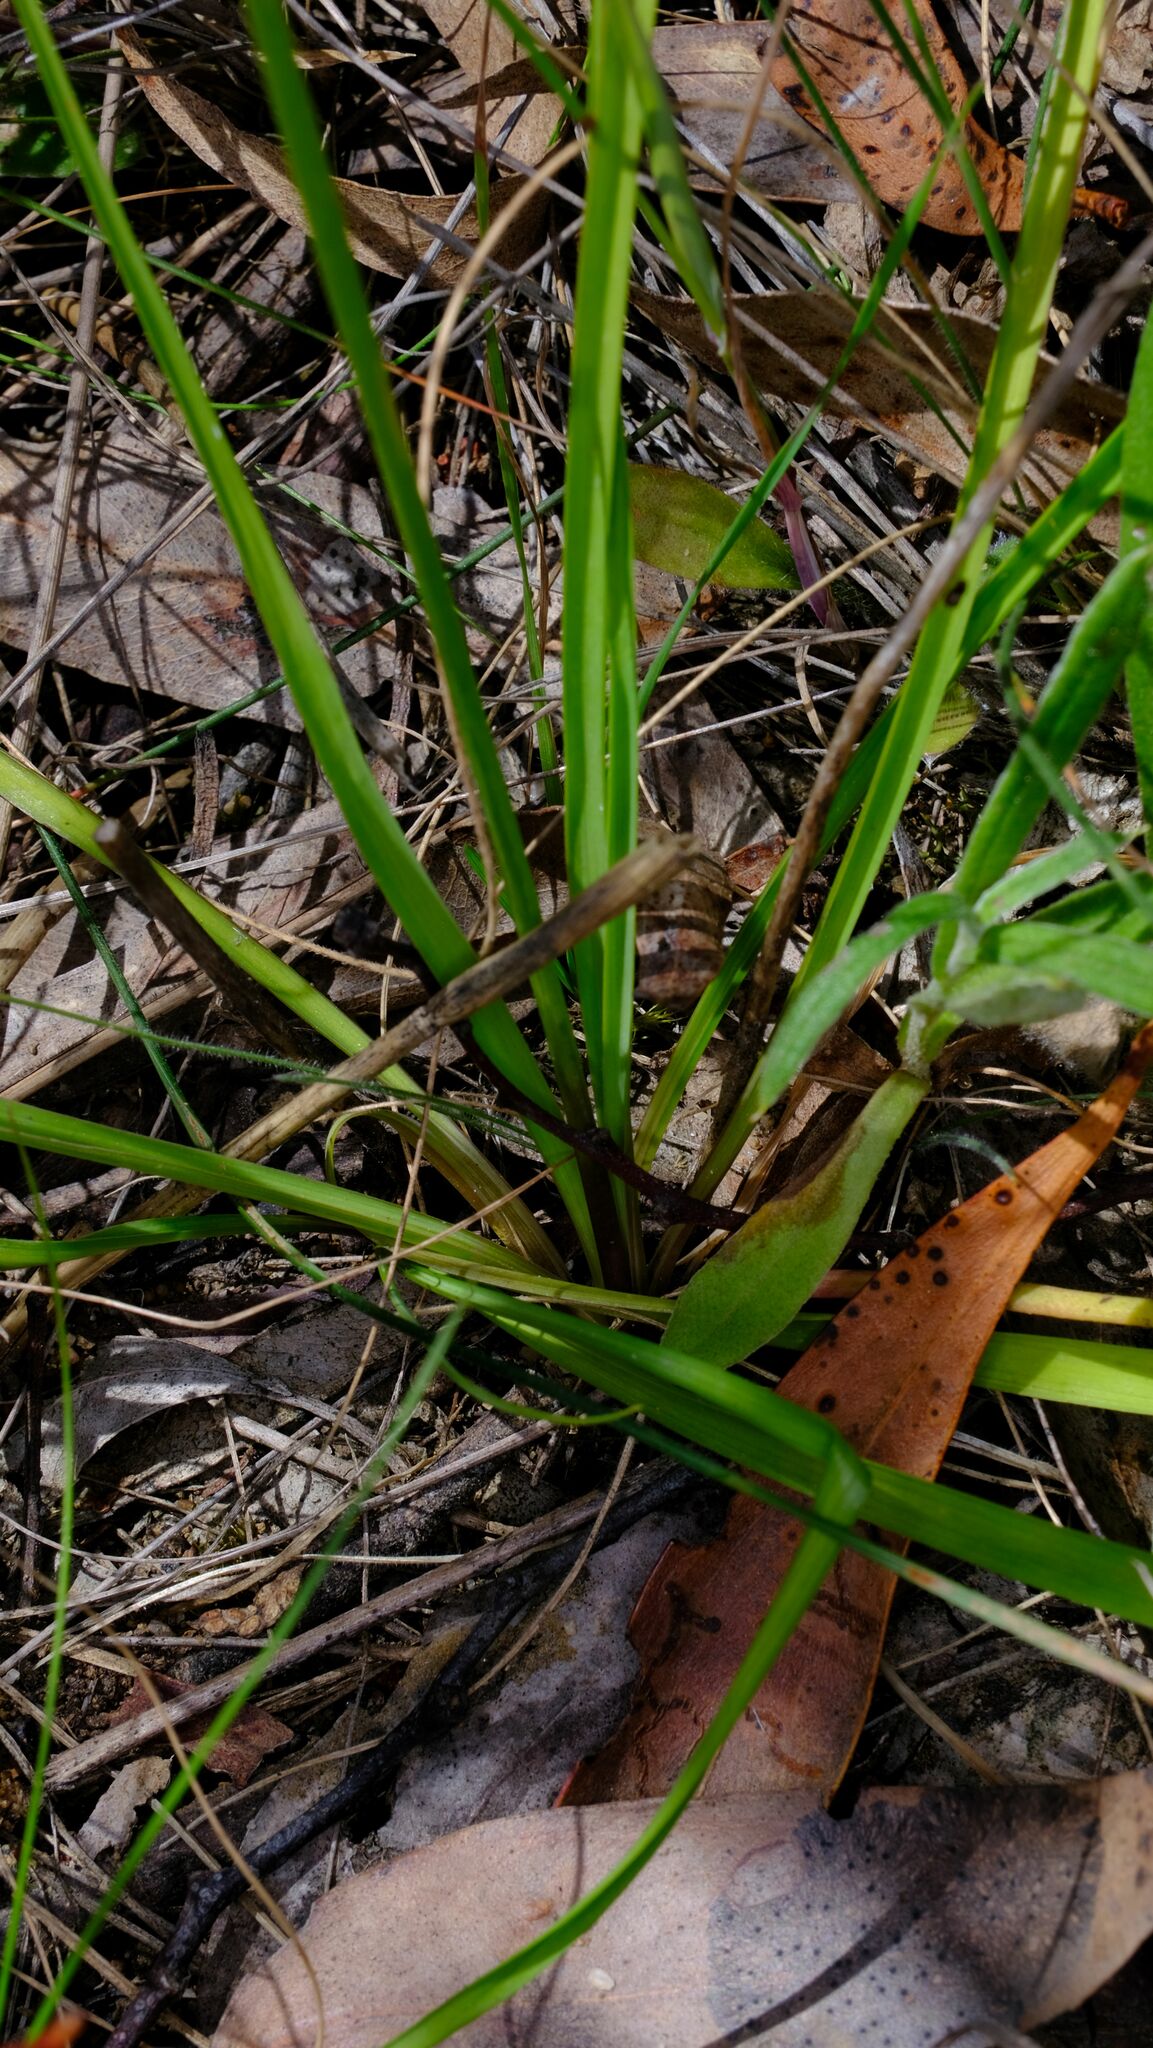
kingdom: Plantae
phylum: Tracheophyta
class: Liliopsida
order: Asparagales
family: Asparagaceae
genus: Arthropodium
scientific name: Arthropodium strictum
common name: Chocolate-lily
